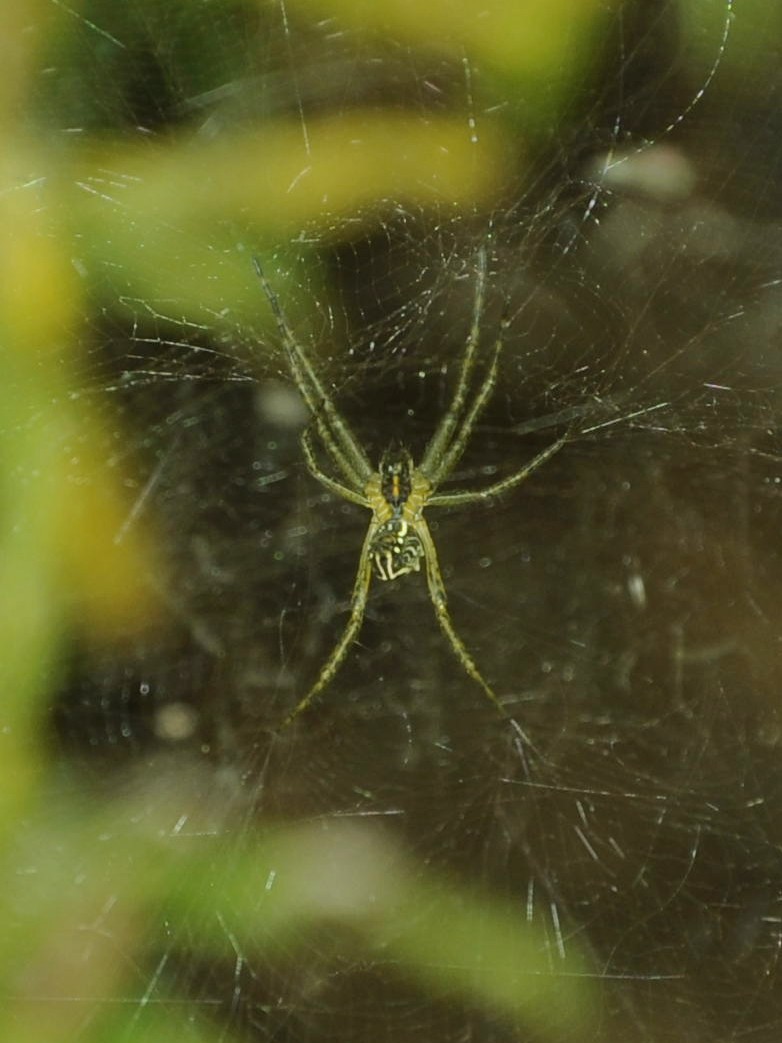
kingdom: Animalia
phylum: Arthropoda
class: Arachnida
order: Araneae
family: Araneidae
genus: Cyrtophora
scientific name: Cyrtophora cicatrosa
